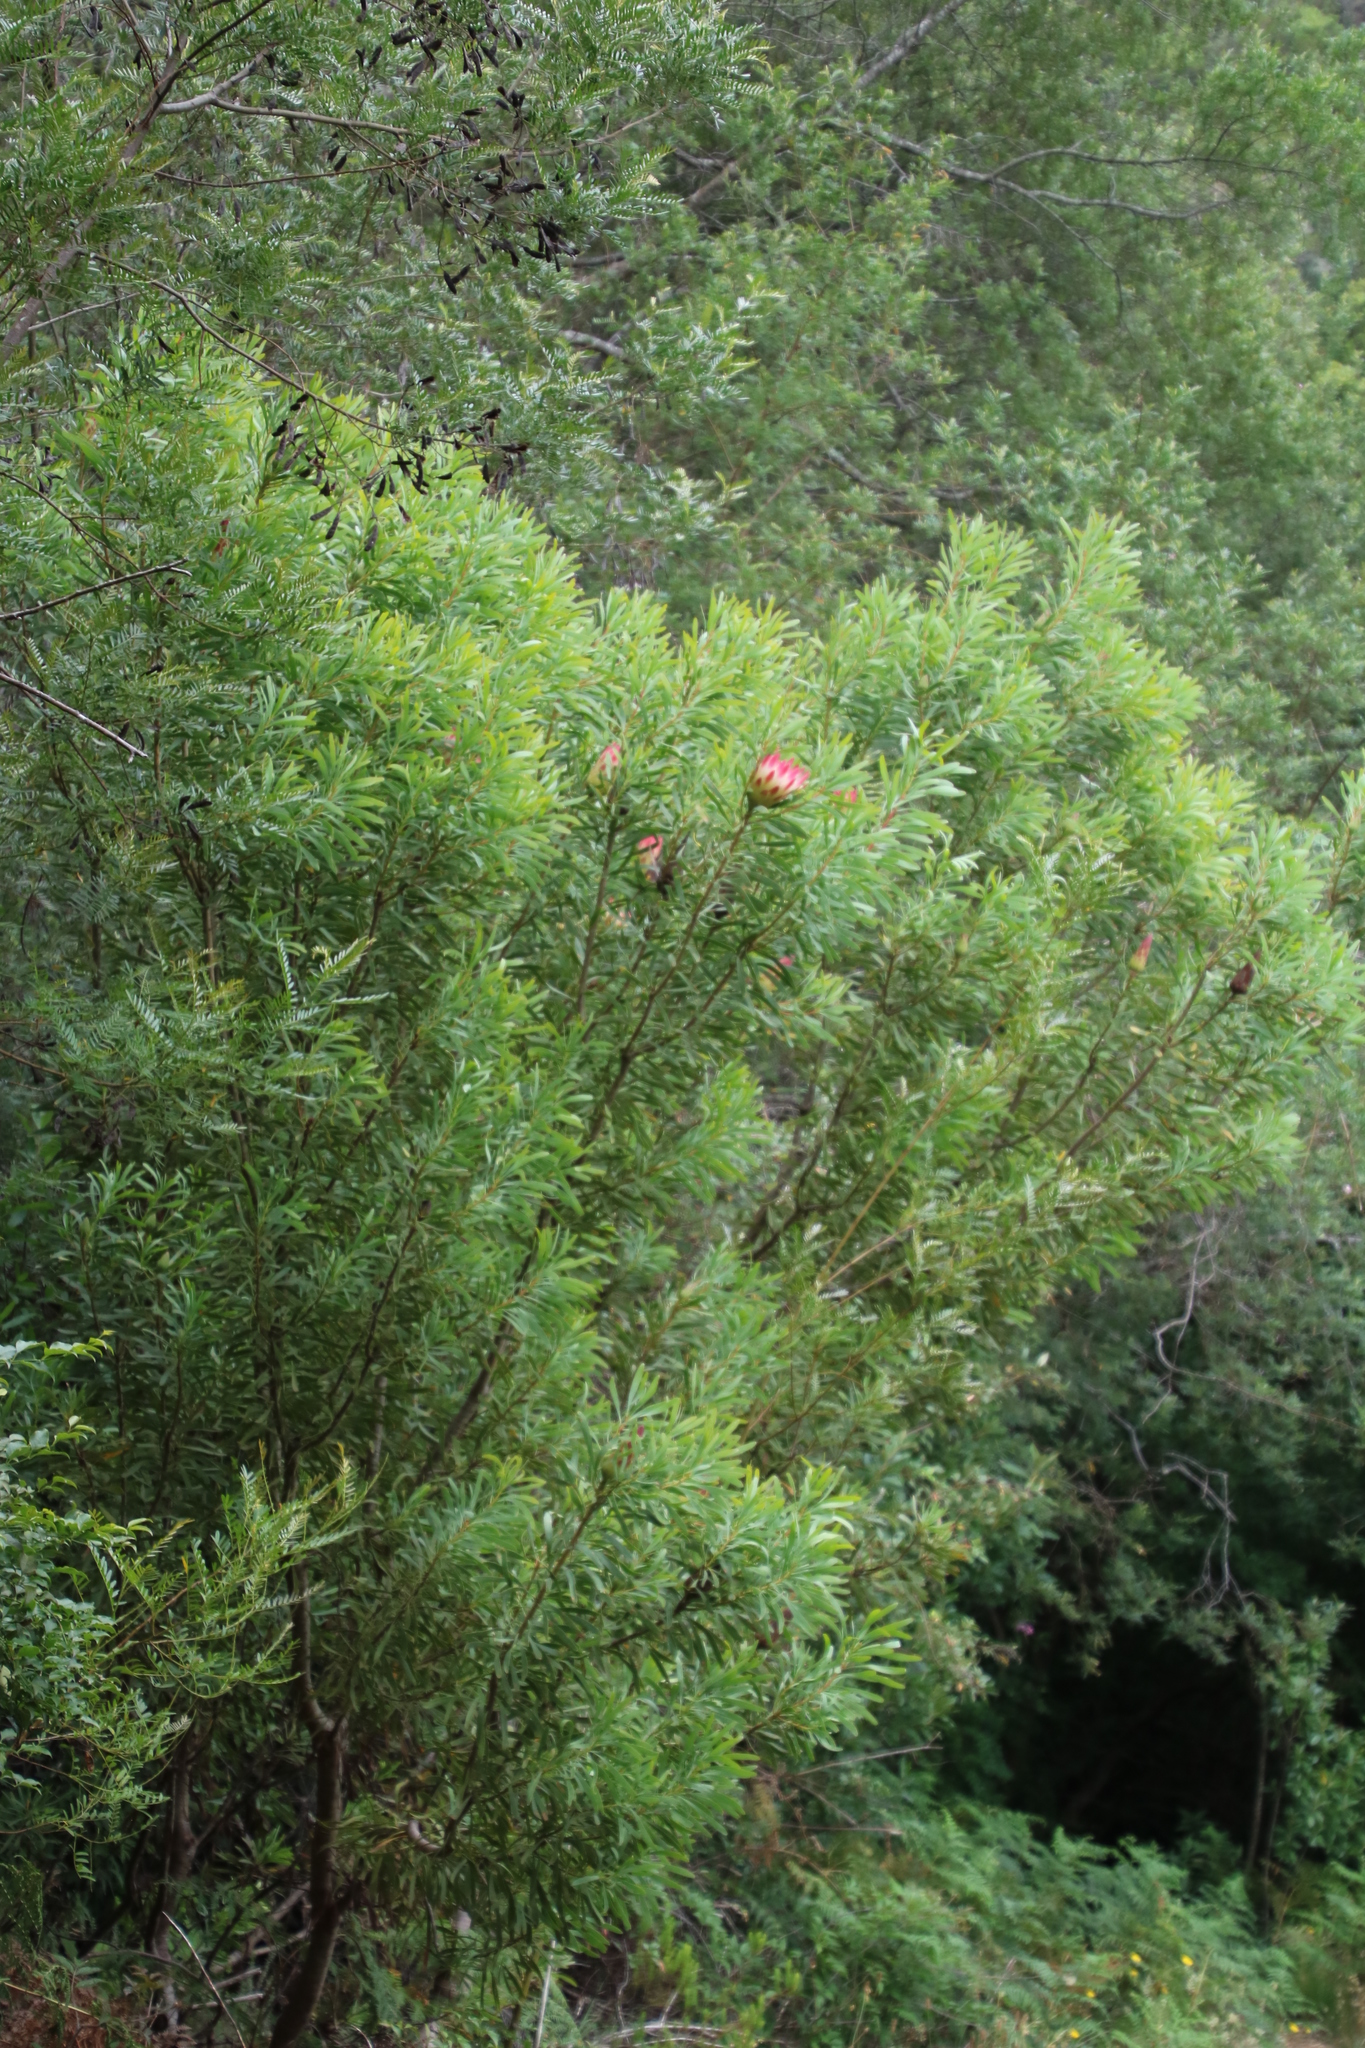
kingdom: Plantae
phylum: Tracheophyta
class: Magnoliopsida
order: Proteales
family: Proteaceae
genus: Protea
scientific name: Protea repens
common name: Sugarbush
